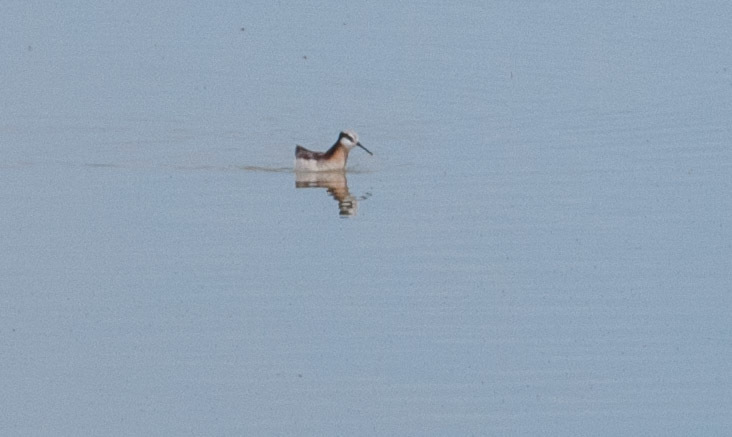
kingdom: Animalia
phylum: Chordata
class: Aves
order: Charadriiformes
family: Scolopacidae
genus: Phalaropus
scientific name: Phalaropus tricolor
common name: Wilson's phalarope
